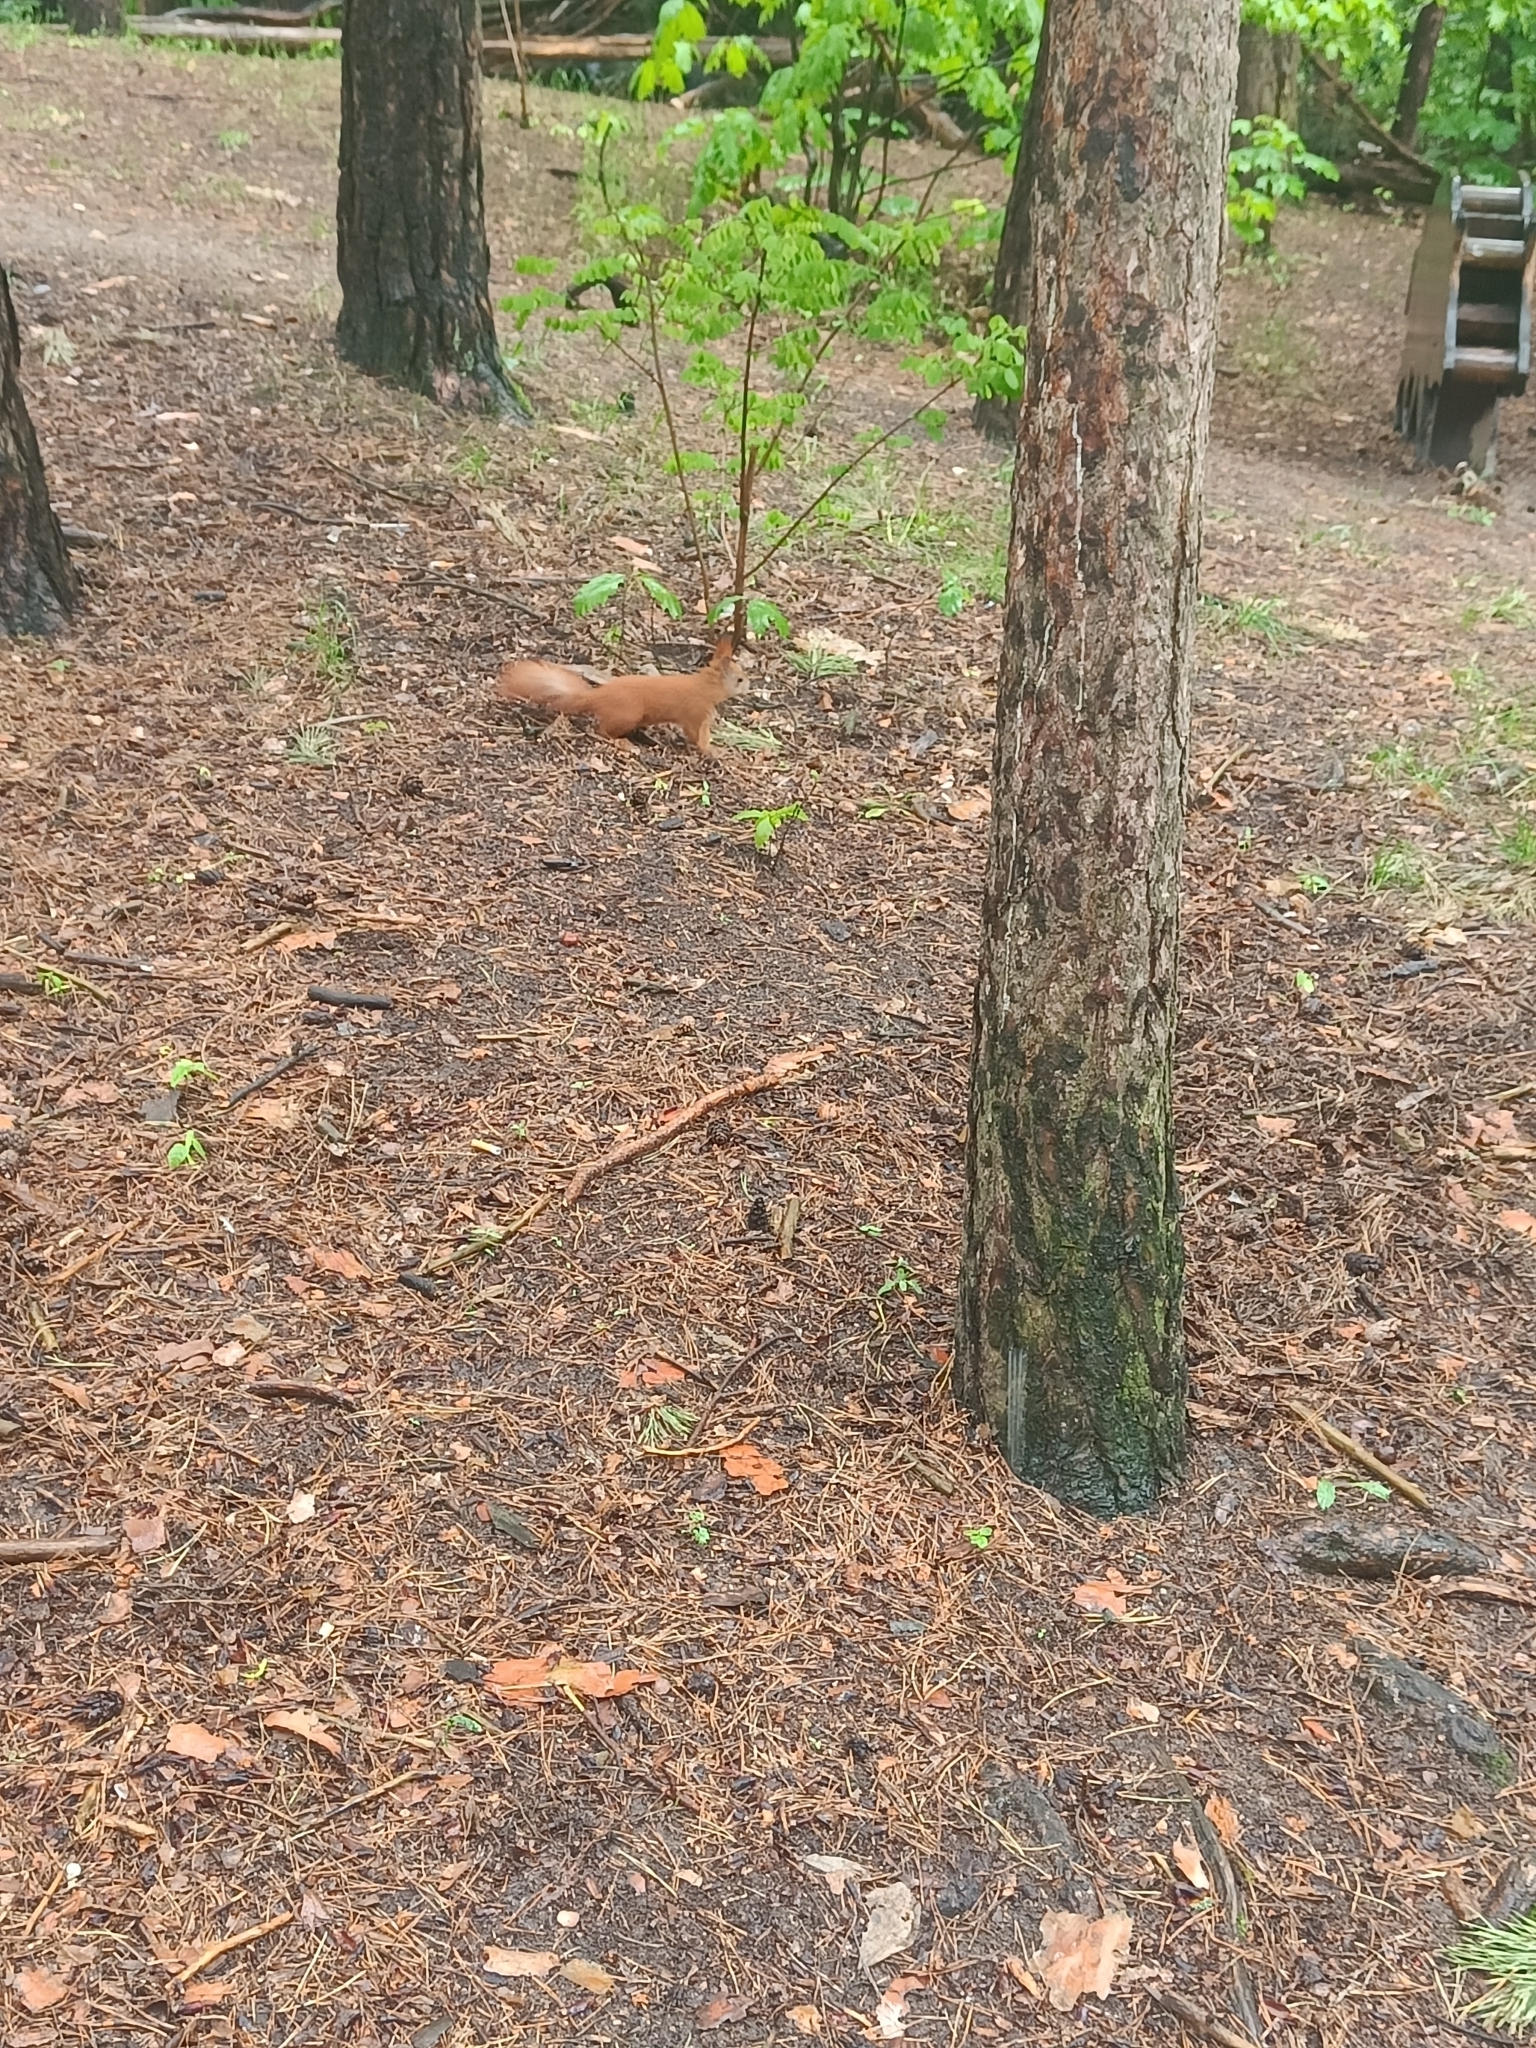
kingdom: Animalia
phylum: Chordata
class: Mammalia
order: Rodentia
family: Sciuridae
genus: Sciurus
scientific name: Sciurus vulgaris
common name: Eurasian red squirrel
